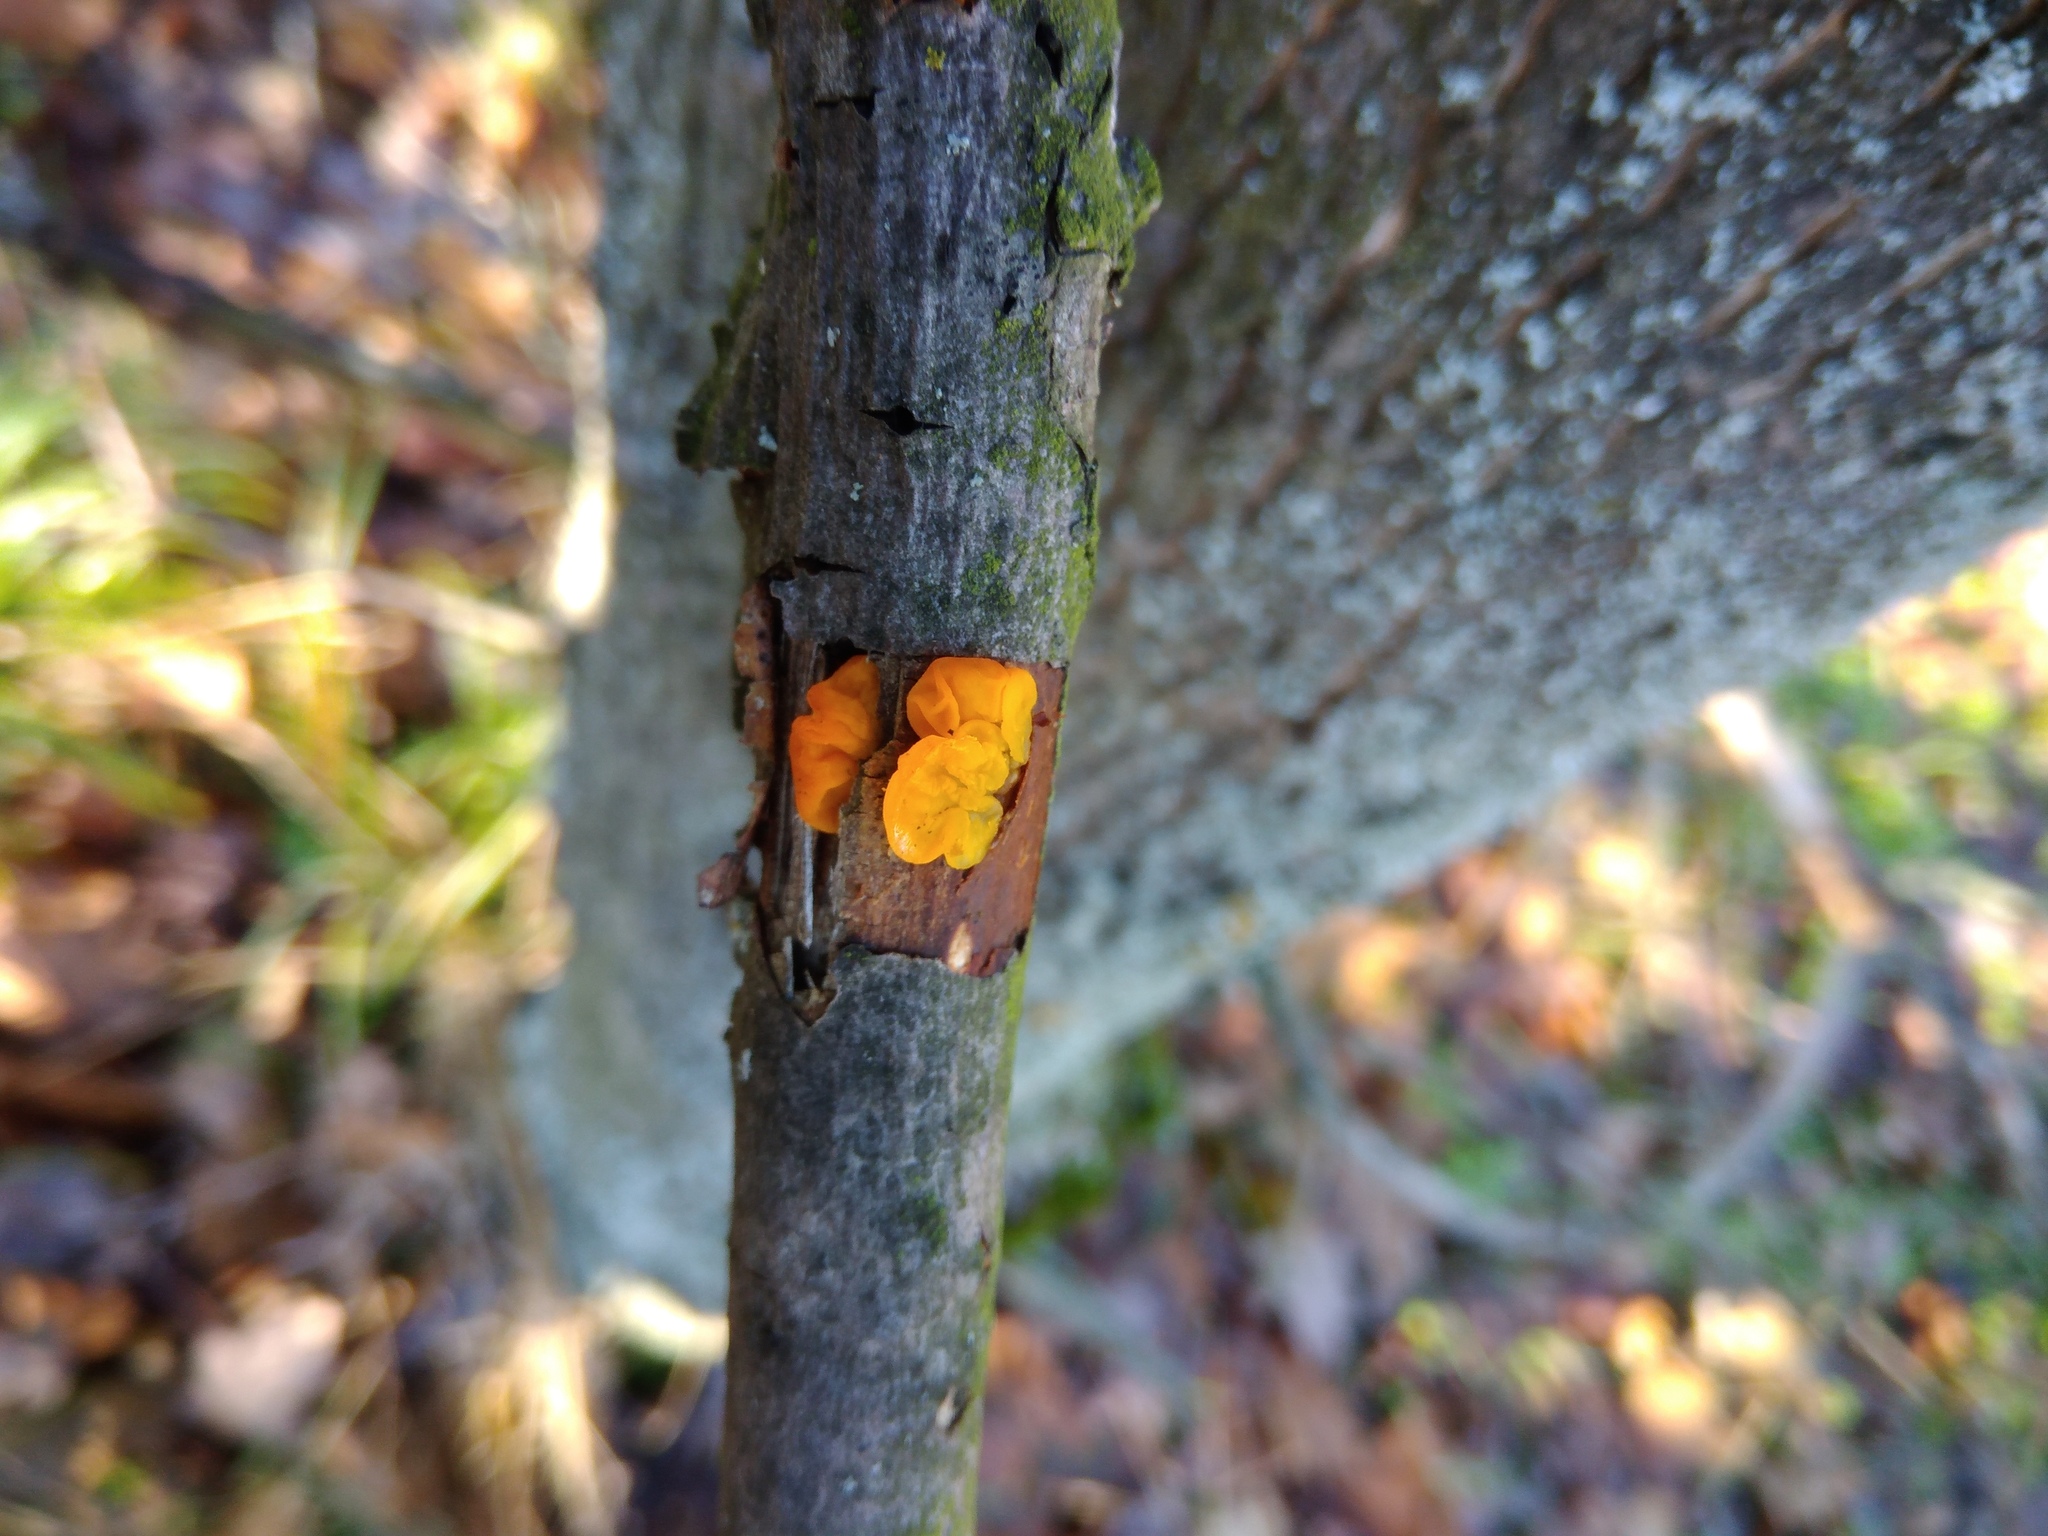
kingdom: Fungi
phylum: Basidiomycota
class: Tremellomycetes
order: Tremellales
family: Tremellaceae
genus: Tremella
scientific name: Tremella mesenterica
